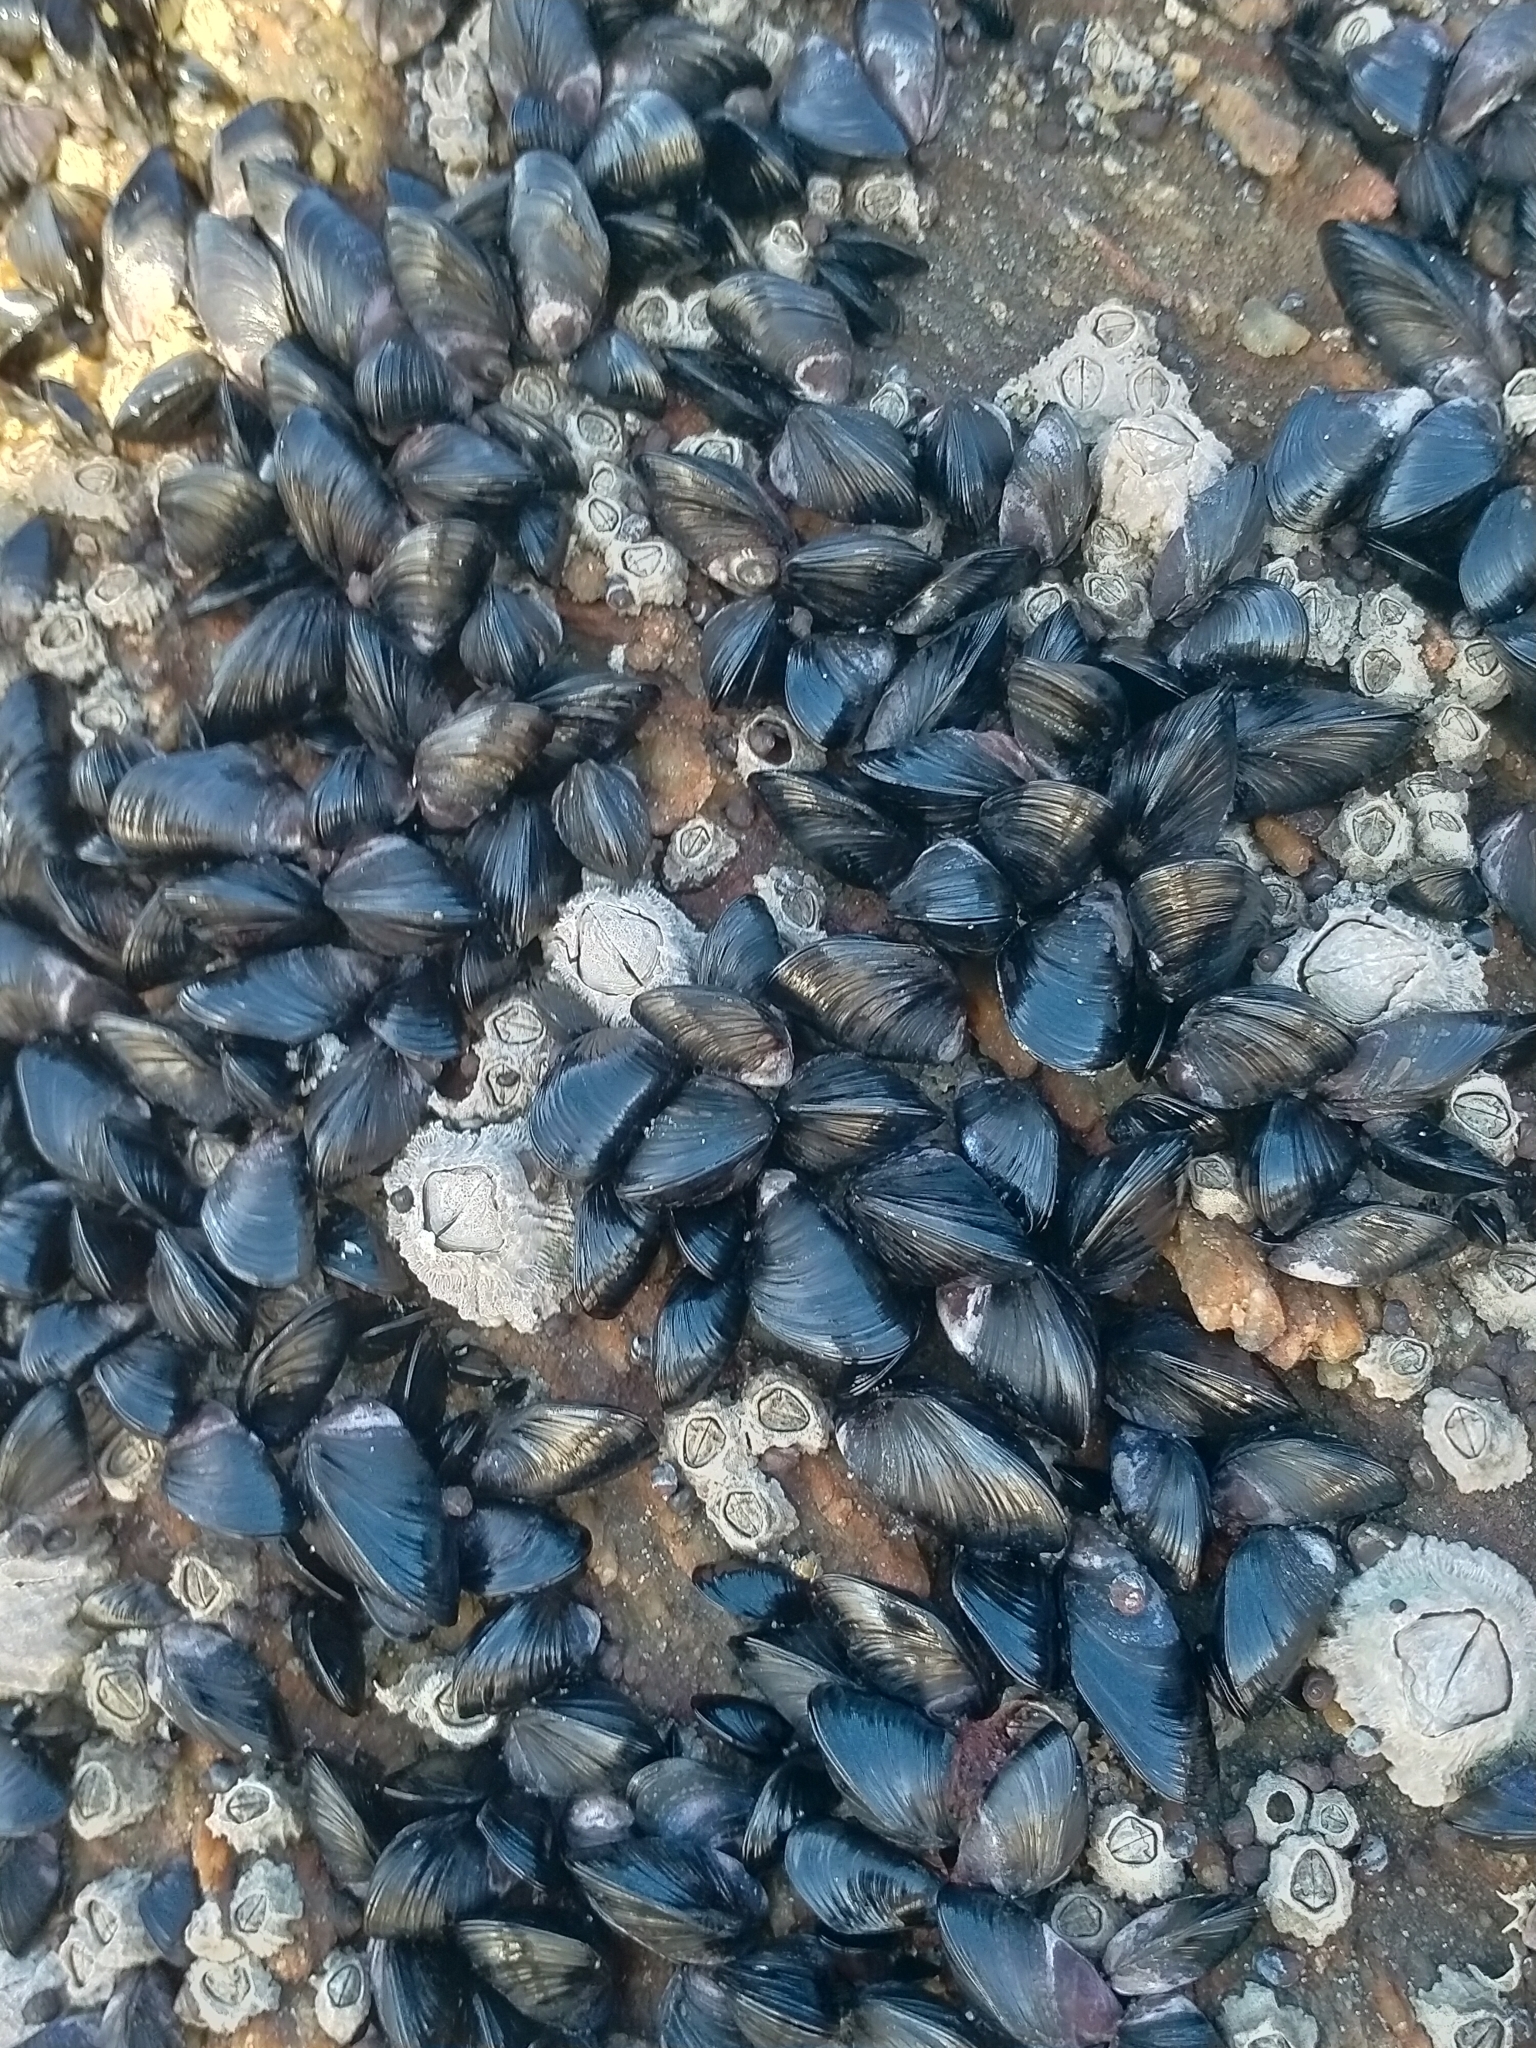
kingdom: Animalia
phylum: Mollusca
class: Bivalvia
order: Mytilida
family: Mytilidae
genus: Xenostrobus
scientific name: Xenostrobus neozelanicus
